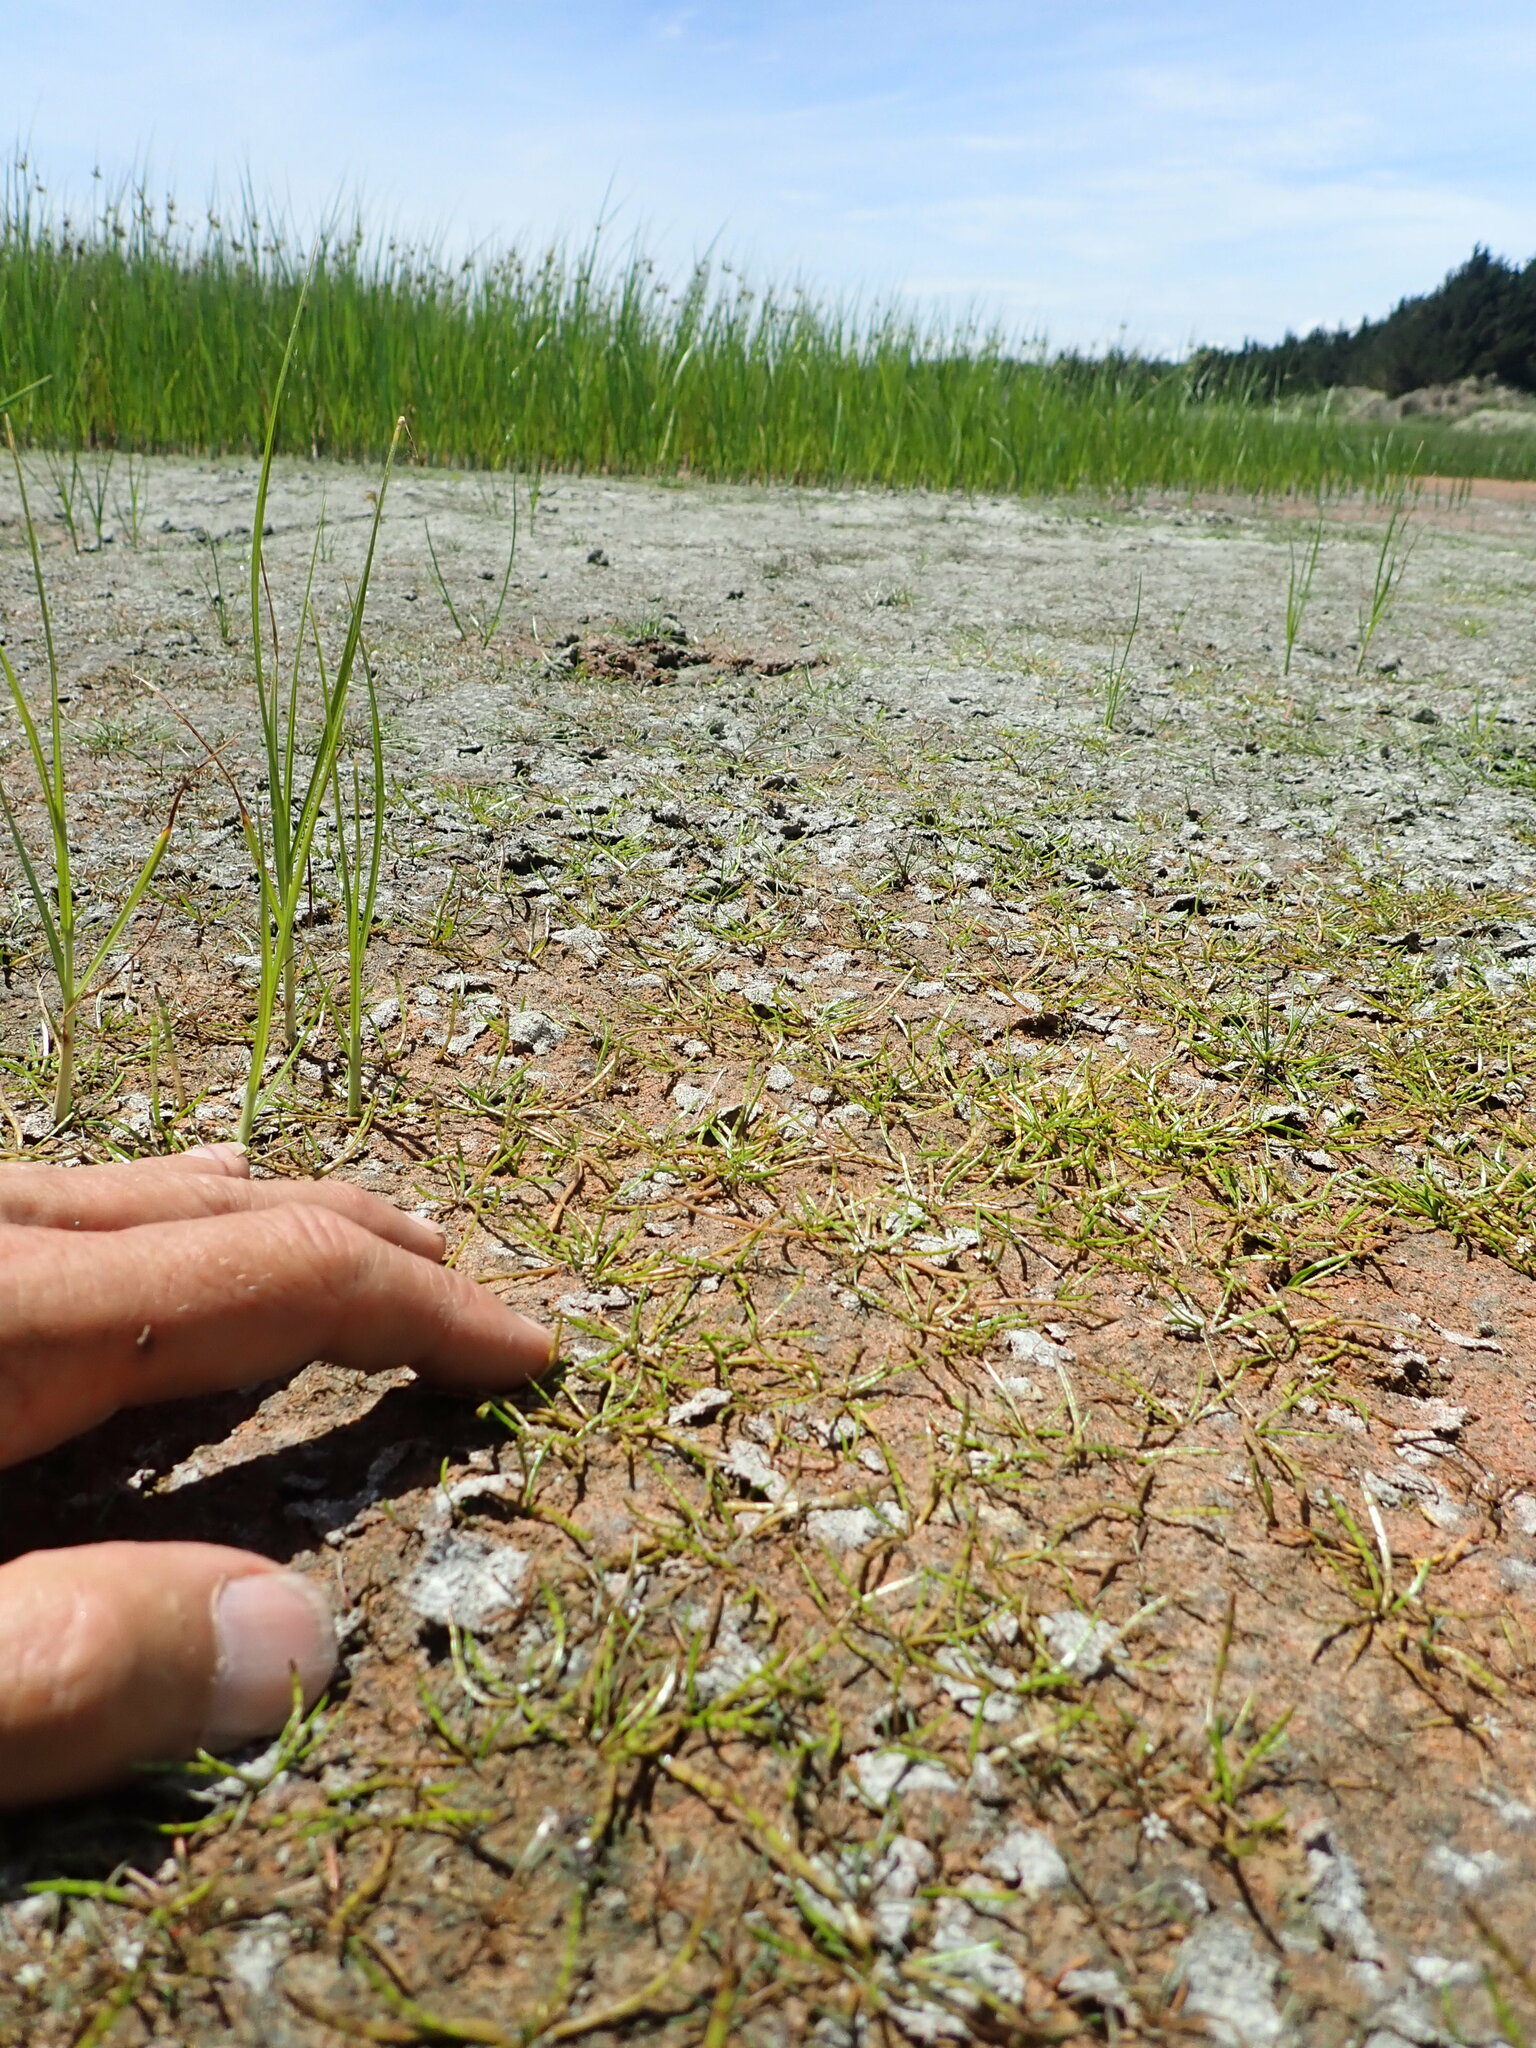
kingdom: Plantae
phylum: Tracheophyta
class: Magnoliopsida
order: Apiales
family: Apiaceae
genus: Lilaeopsis
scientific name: Lilaeopsis novae-zelandiae
